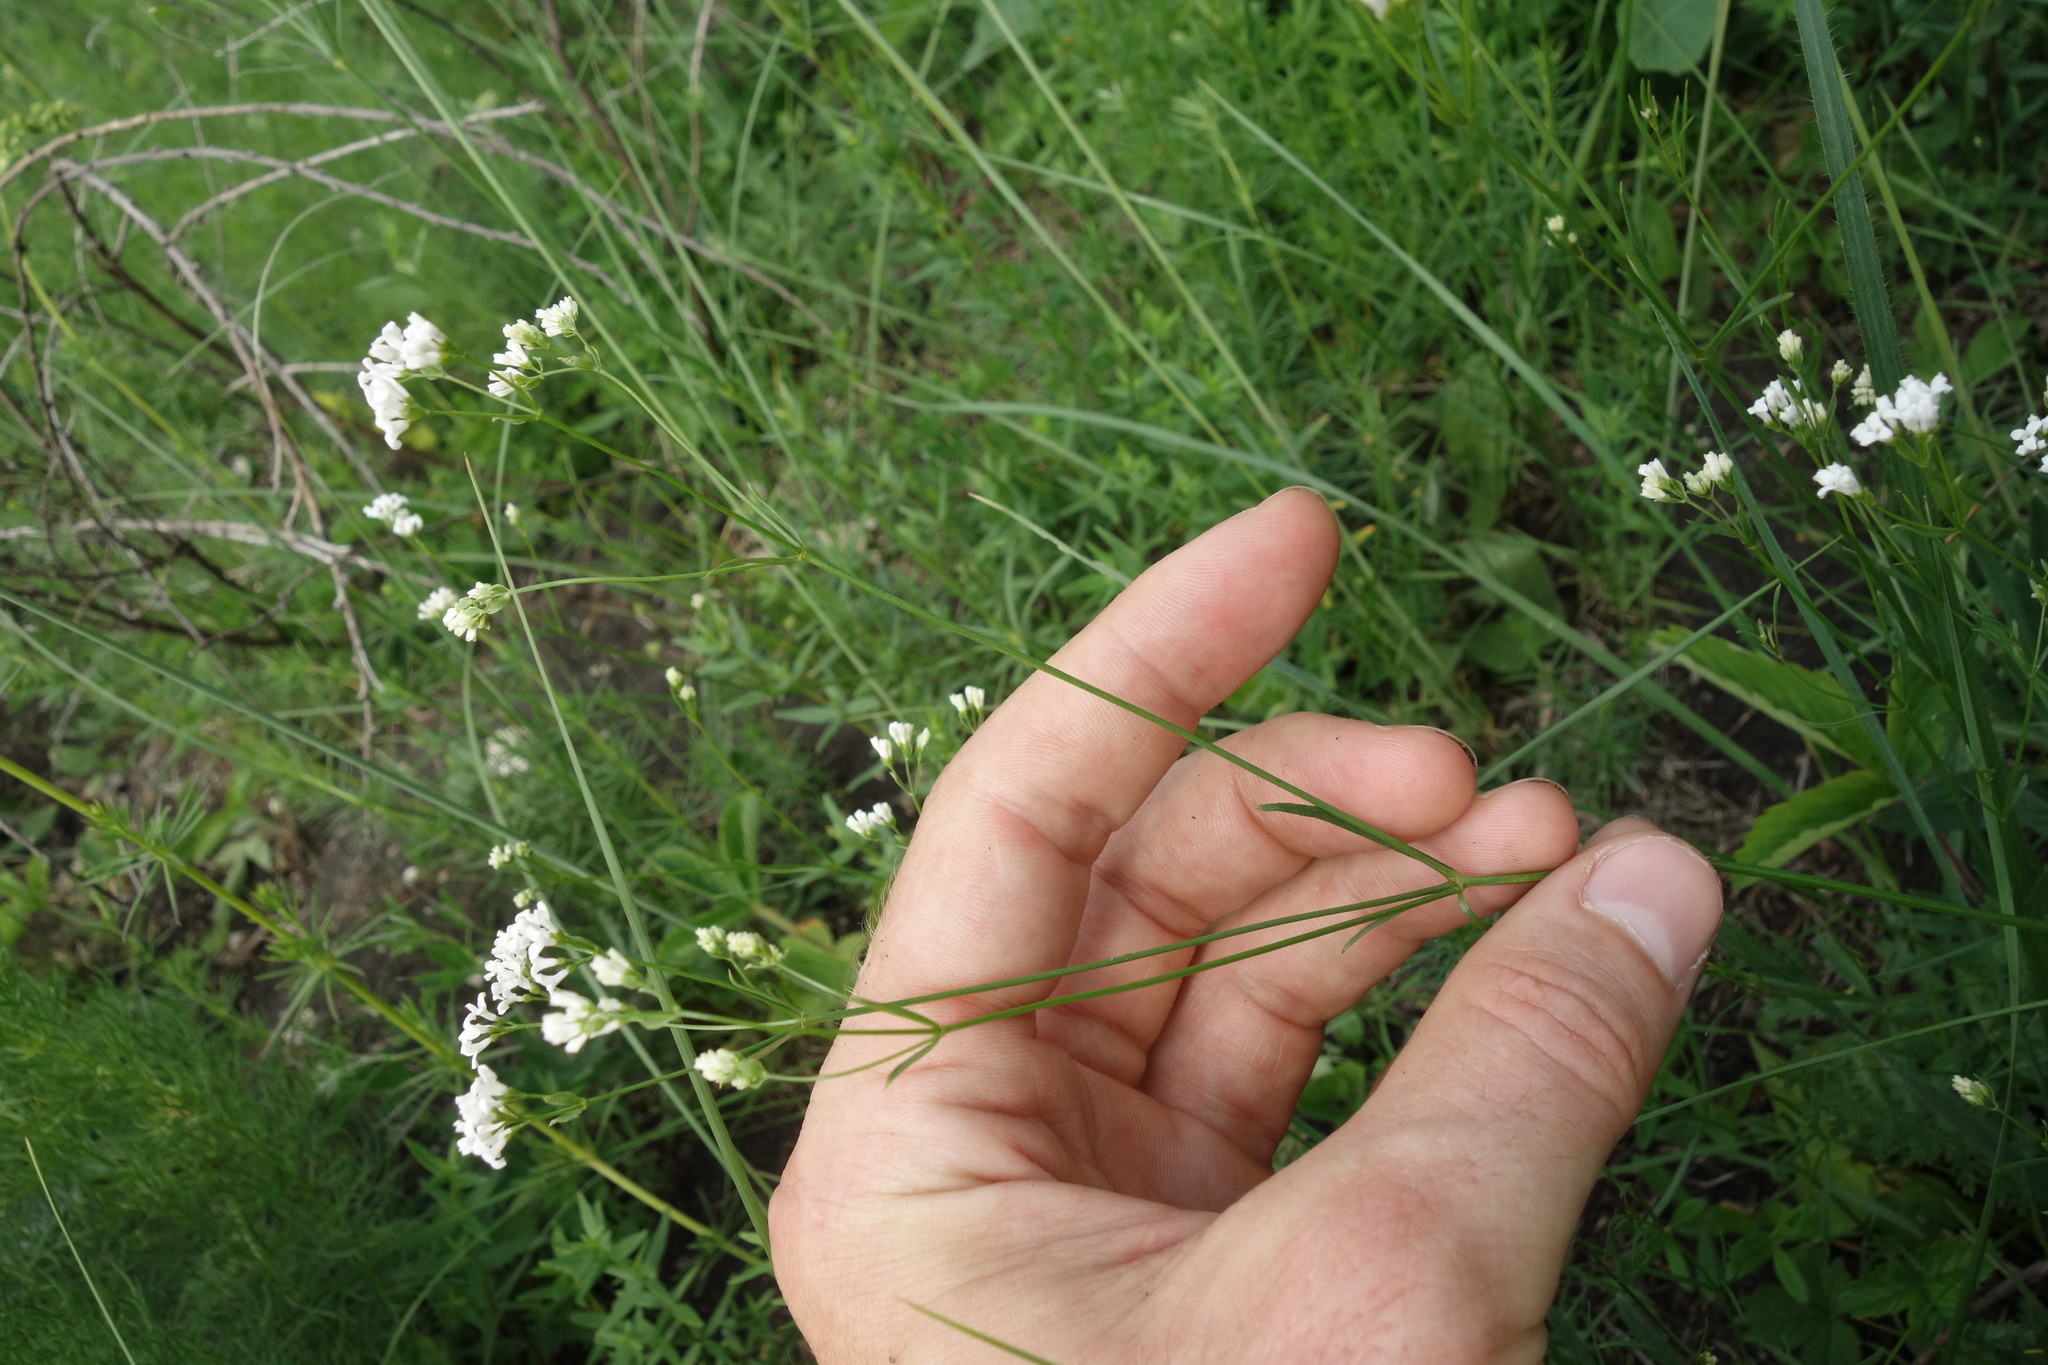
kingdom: Plantae
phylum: Tracheophyta
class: Magnoliopsida
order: Gentianales
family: Rubiaceae
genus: Asperula
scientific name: Asperula tinctoria
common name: Dyer's woodruff
